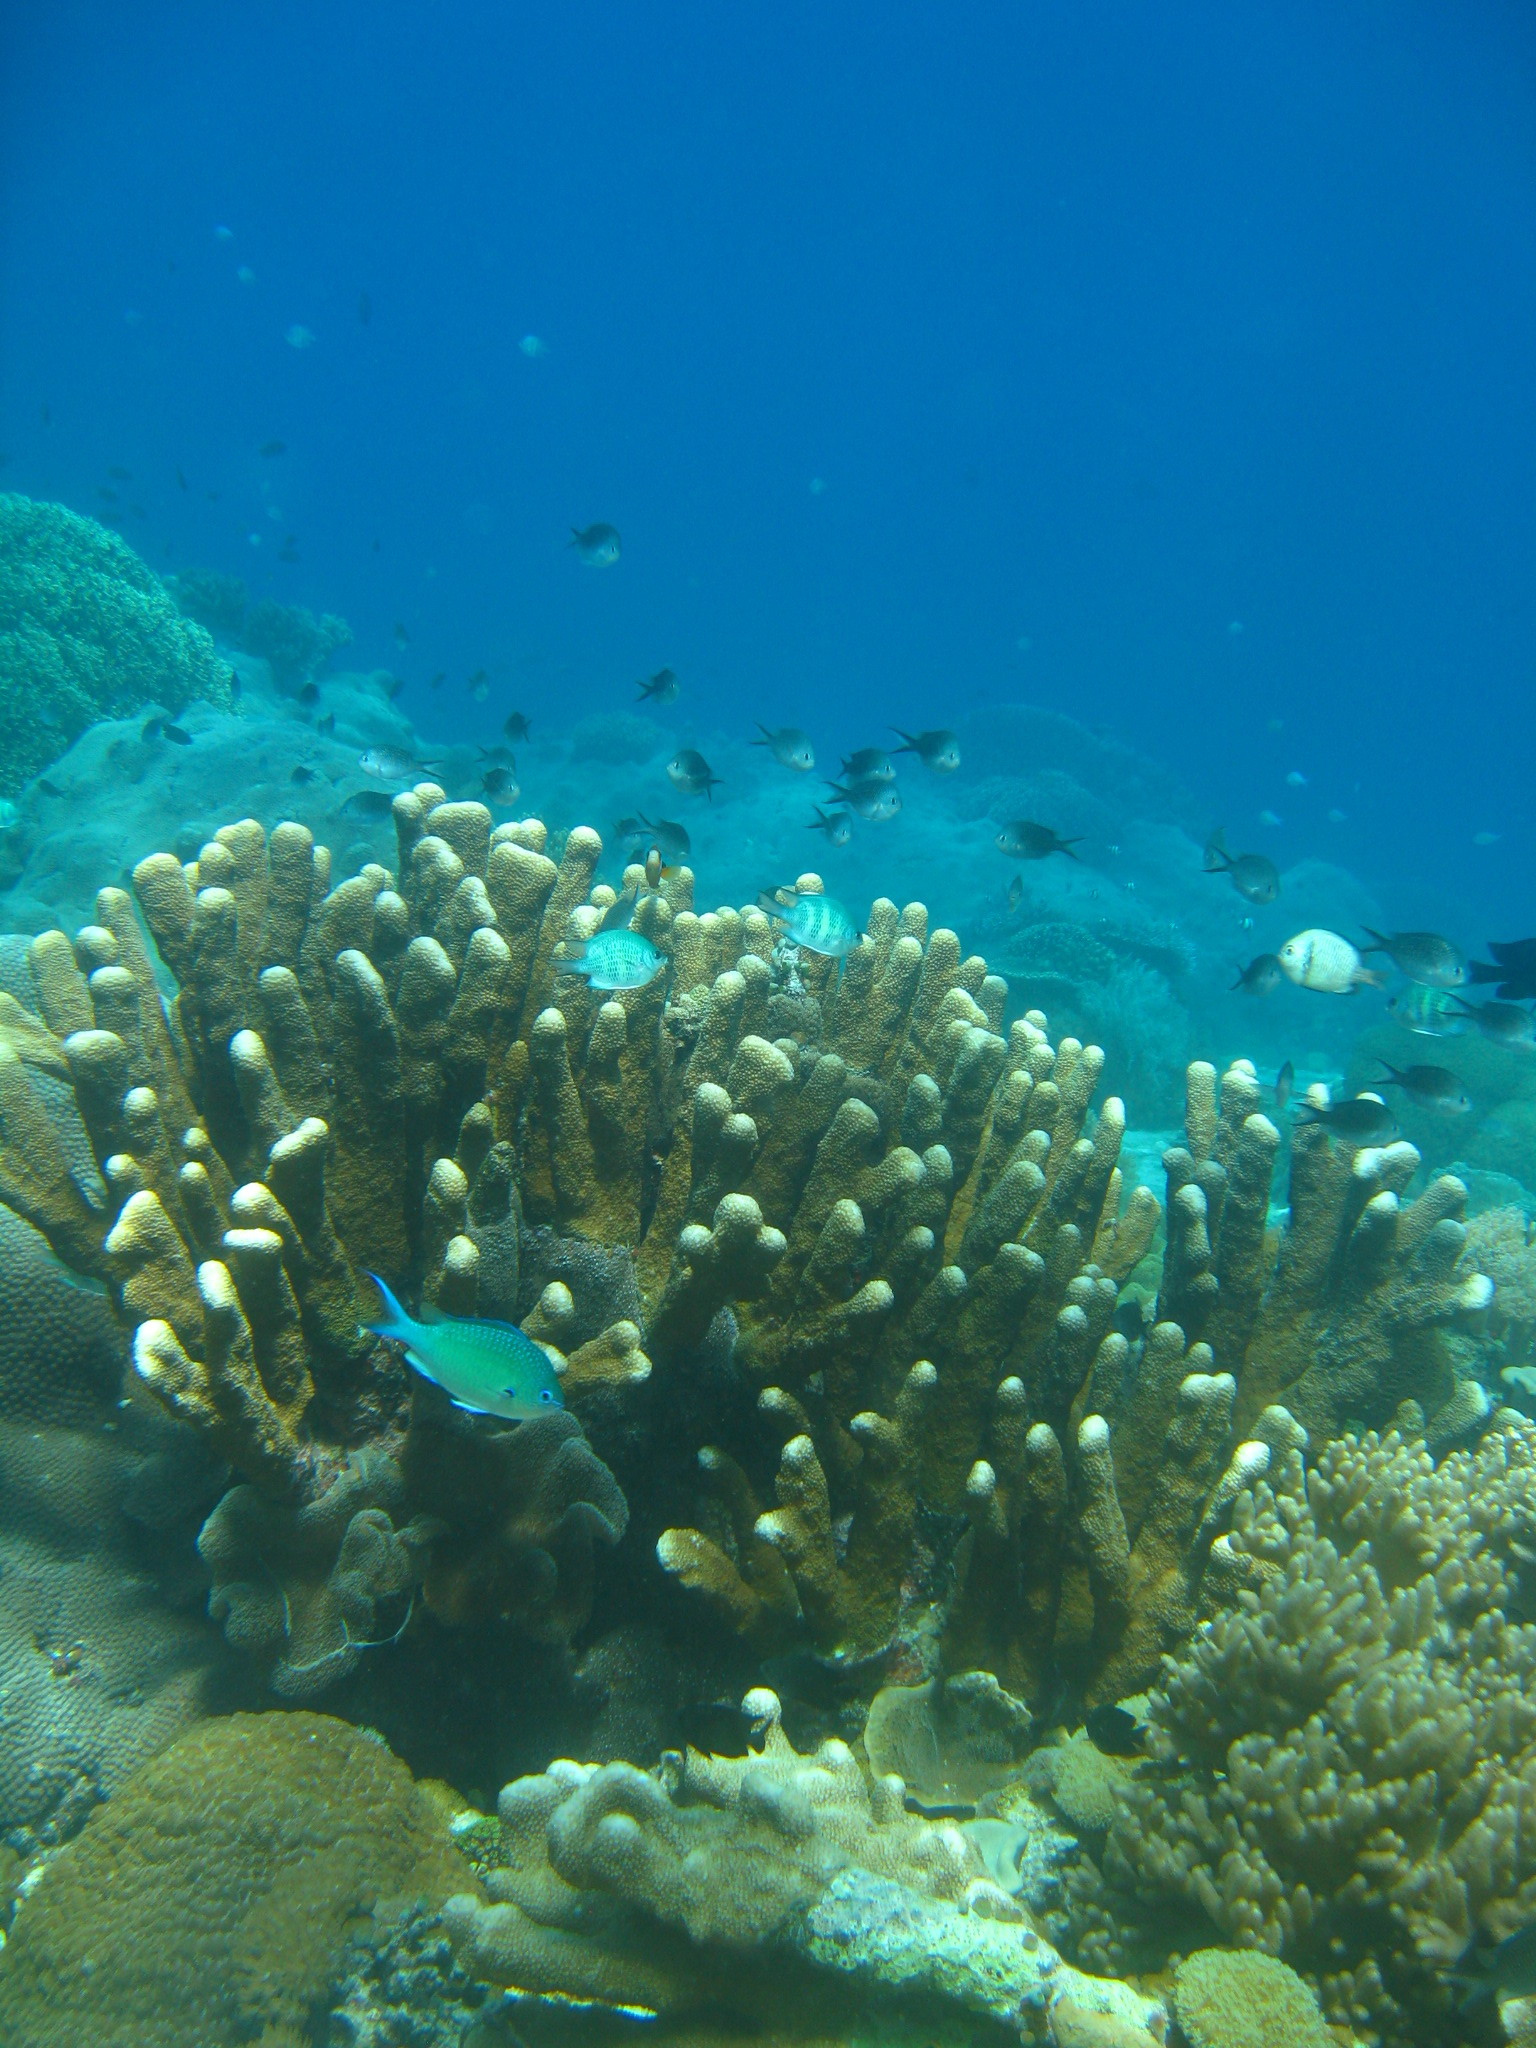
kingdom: Animalia
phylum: Cnidaria
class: Anthozoa
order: Scleractinia
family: Acroporidae
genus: Isopora
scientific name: Isopora palifera
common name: Catch bowl coral
